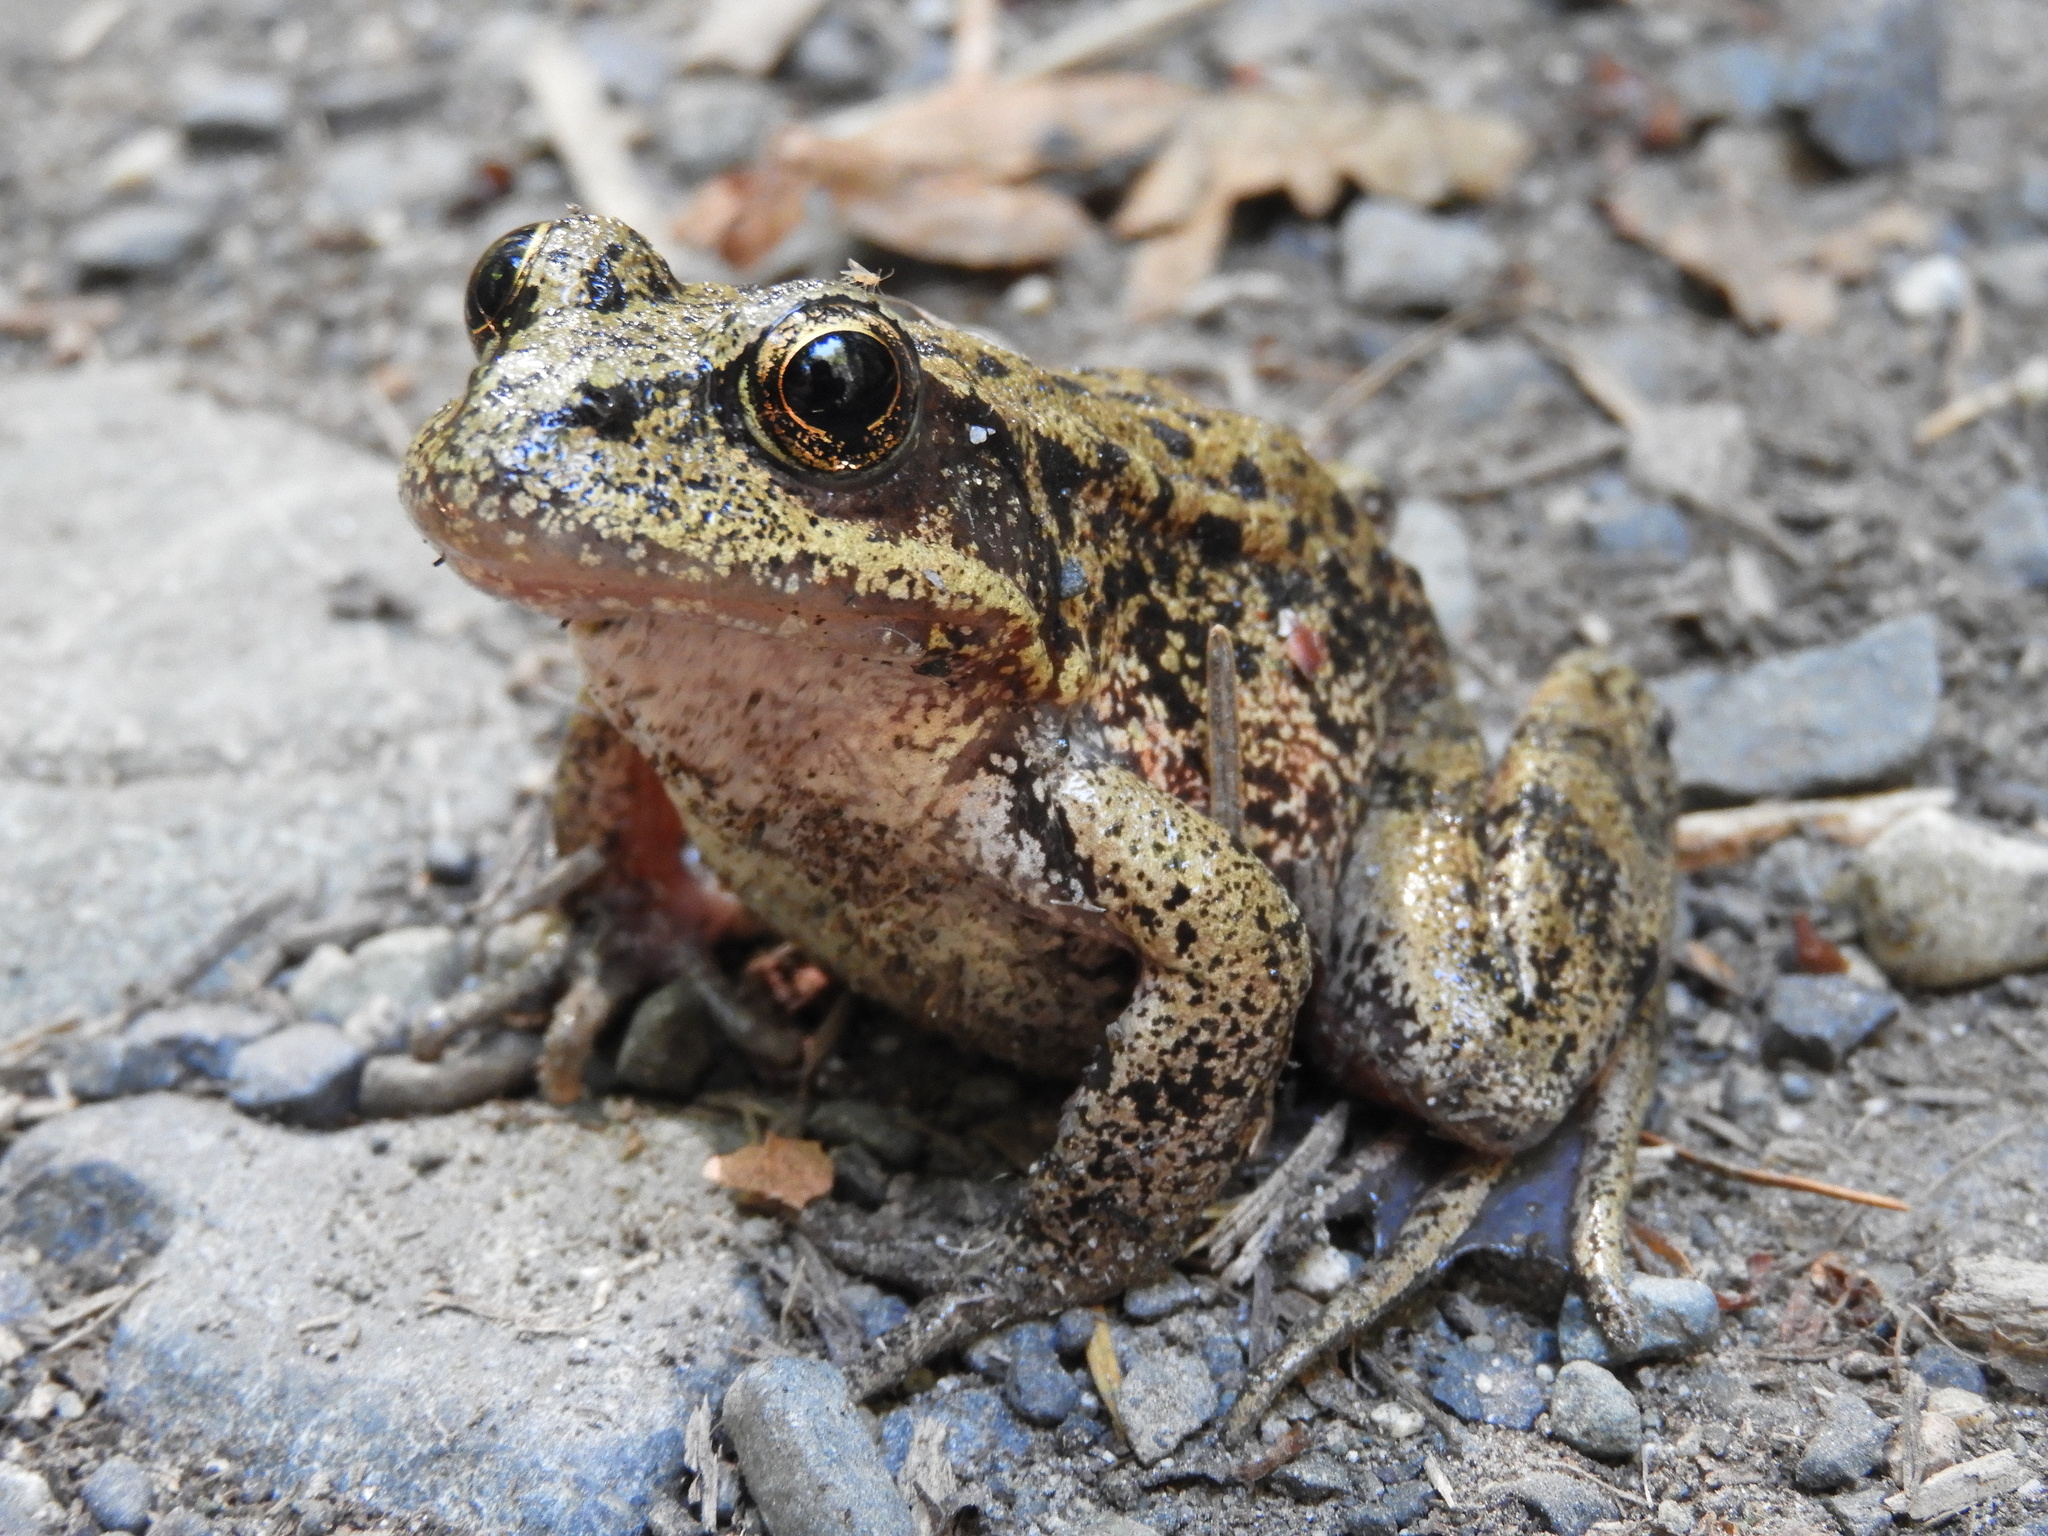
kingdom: Animalia
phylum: Chordata
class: Amphibia
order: Anura
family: Ranidae
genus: Rana
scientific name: Rana aurora
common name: Red-legged frog
